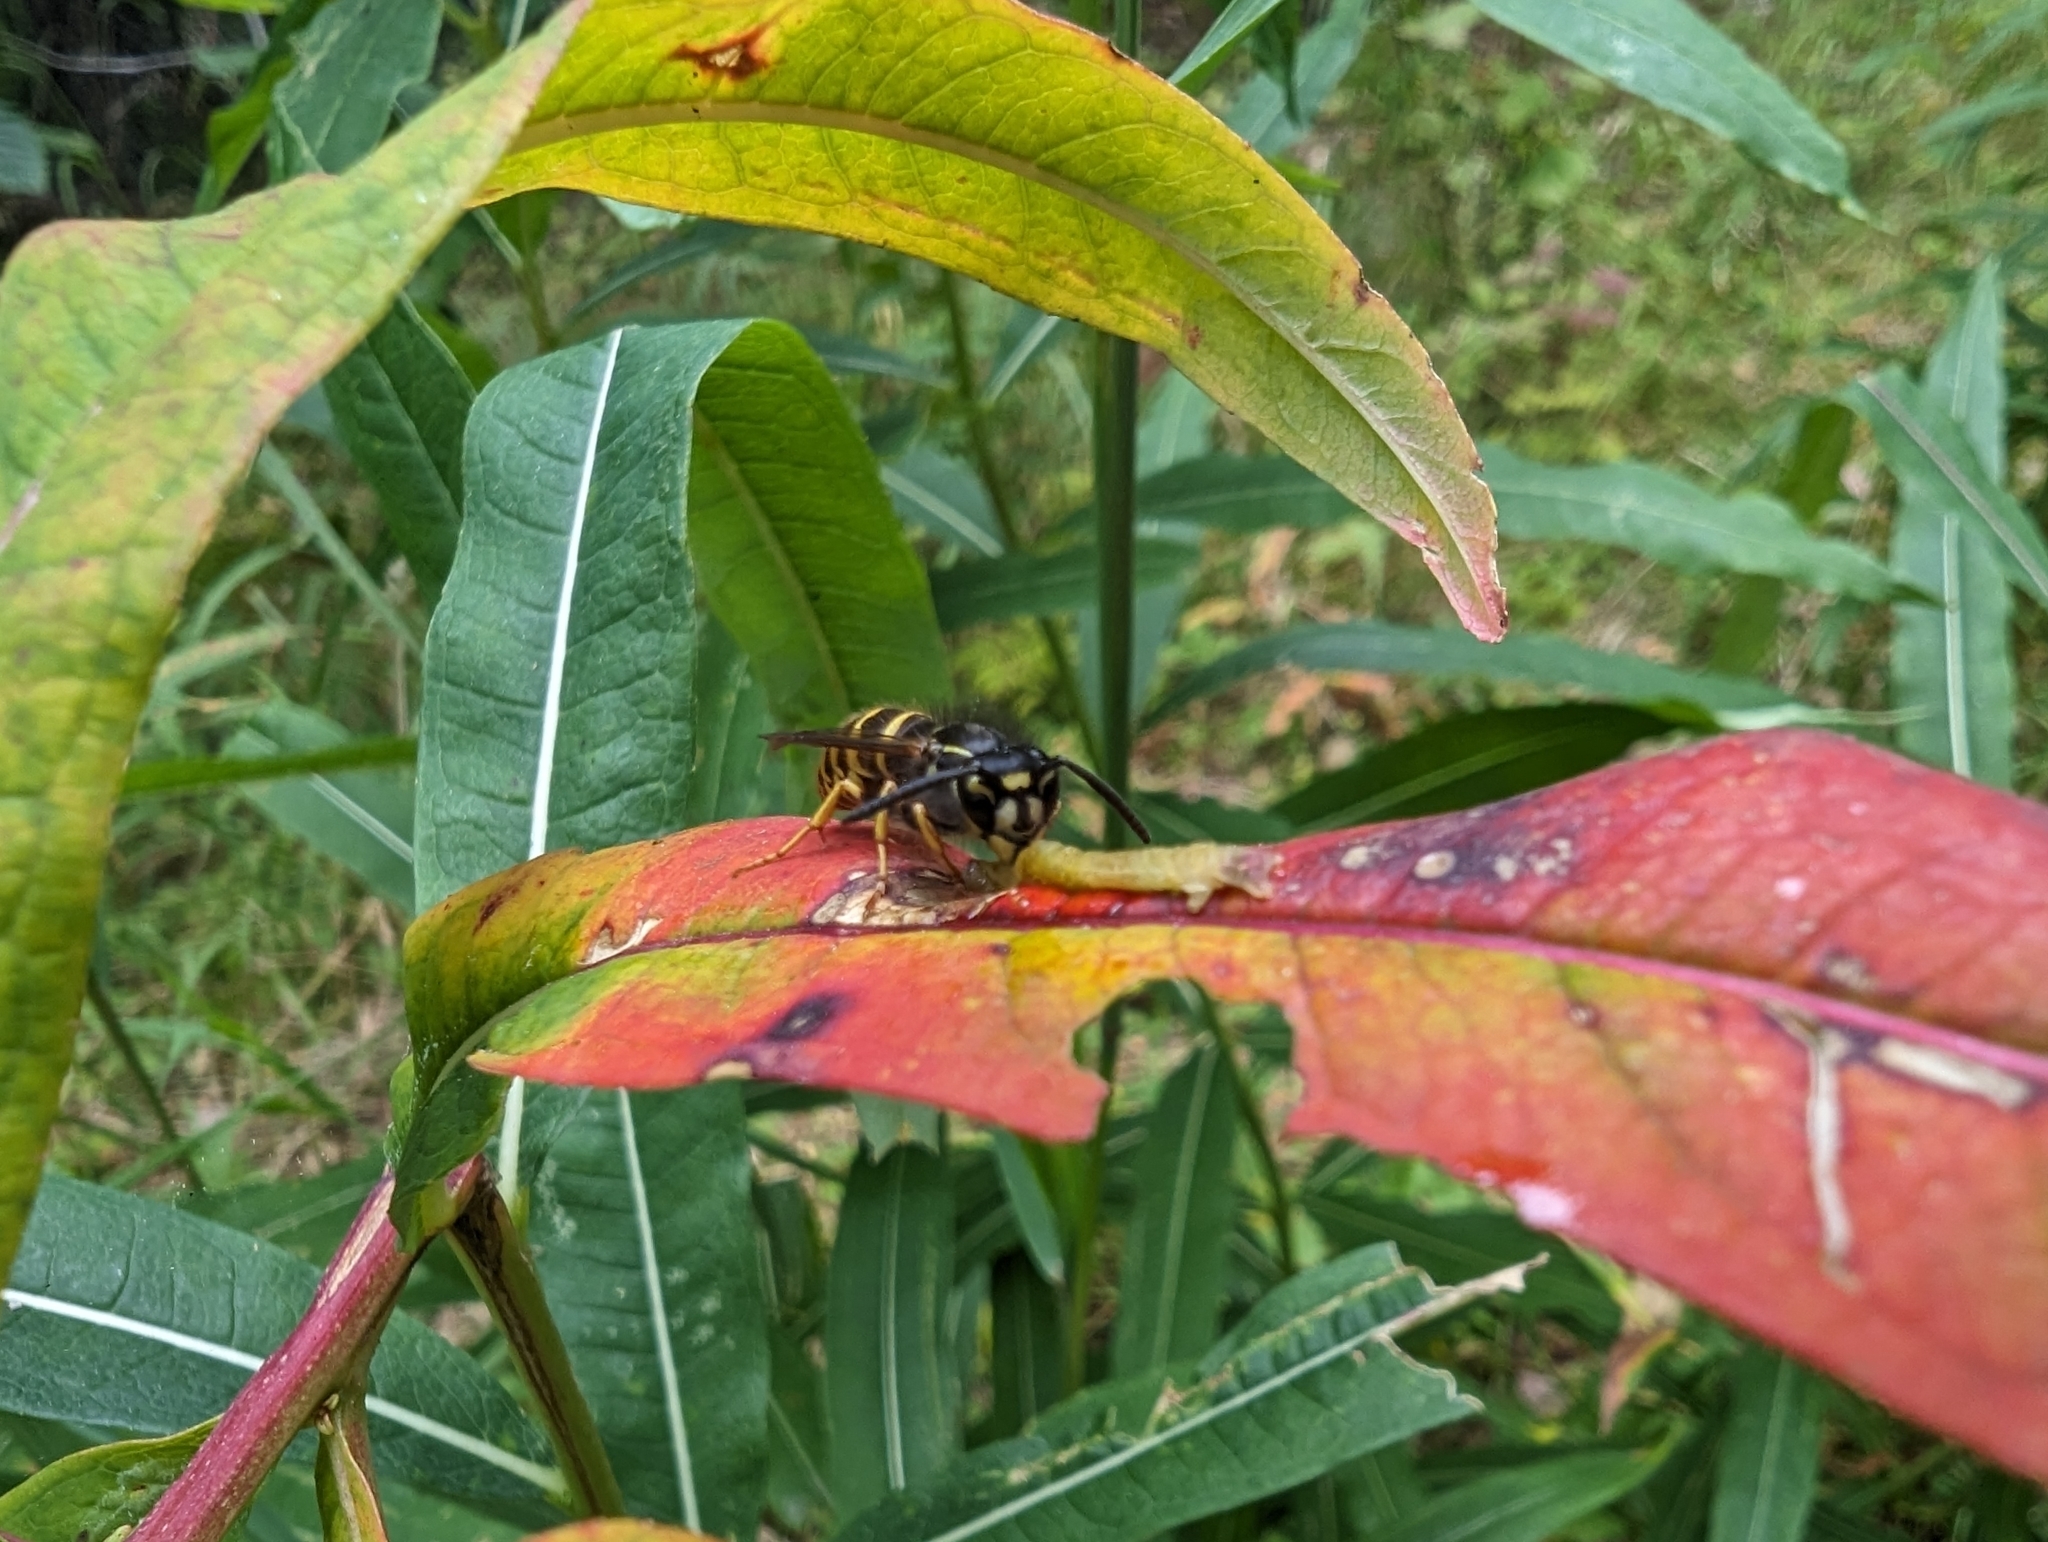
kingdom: Animalia
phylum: Arthropoda
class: Insecta
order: Hymenoptera
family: Vespidae
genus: Vespula
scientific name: Vespula alascensis
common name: Alaska yellowjacket
